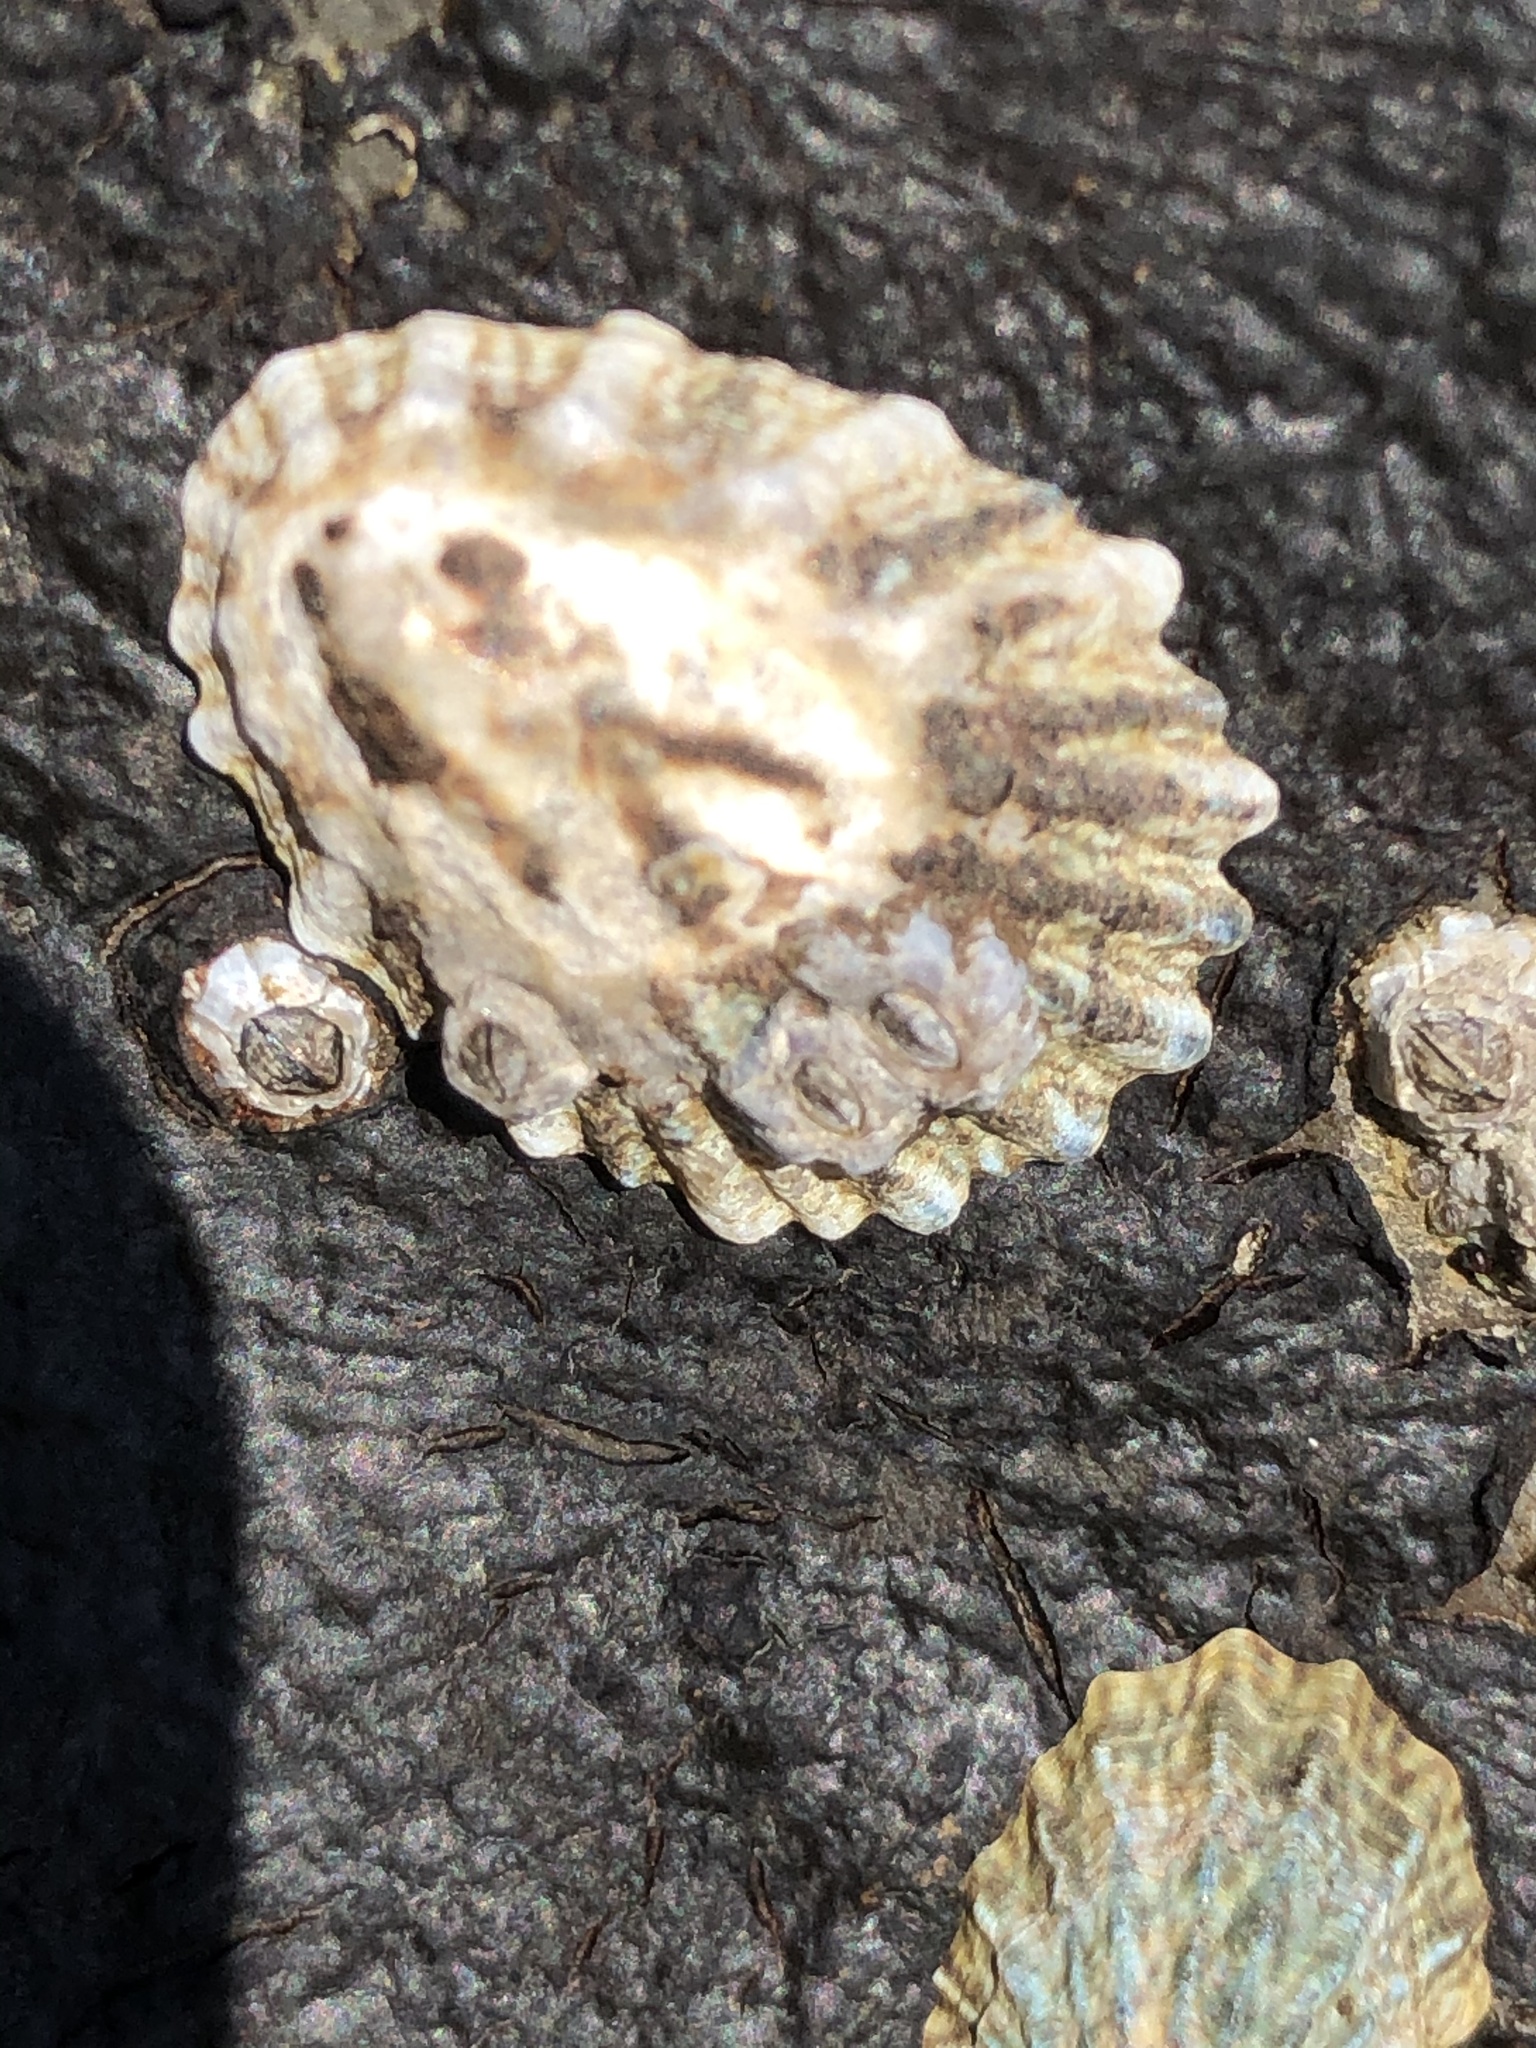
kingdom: Animalia
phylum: Mollusca
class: Gastropoda
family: Lottiidae
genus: Lottia
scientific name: Lottia scabra
